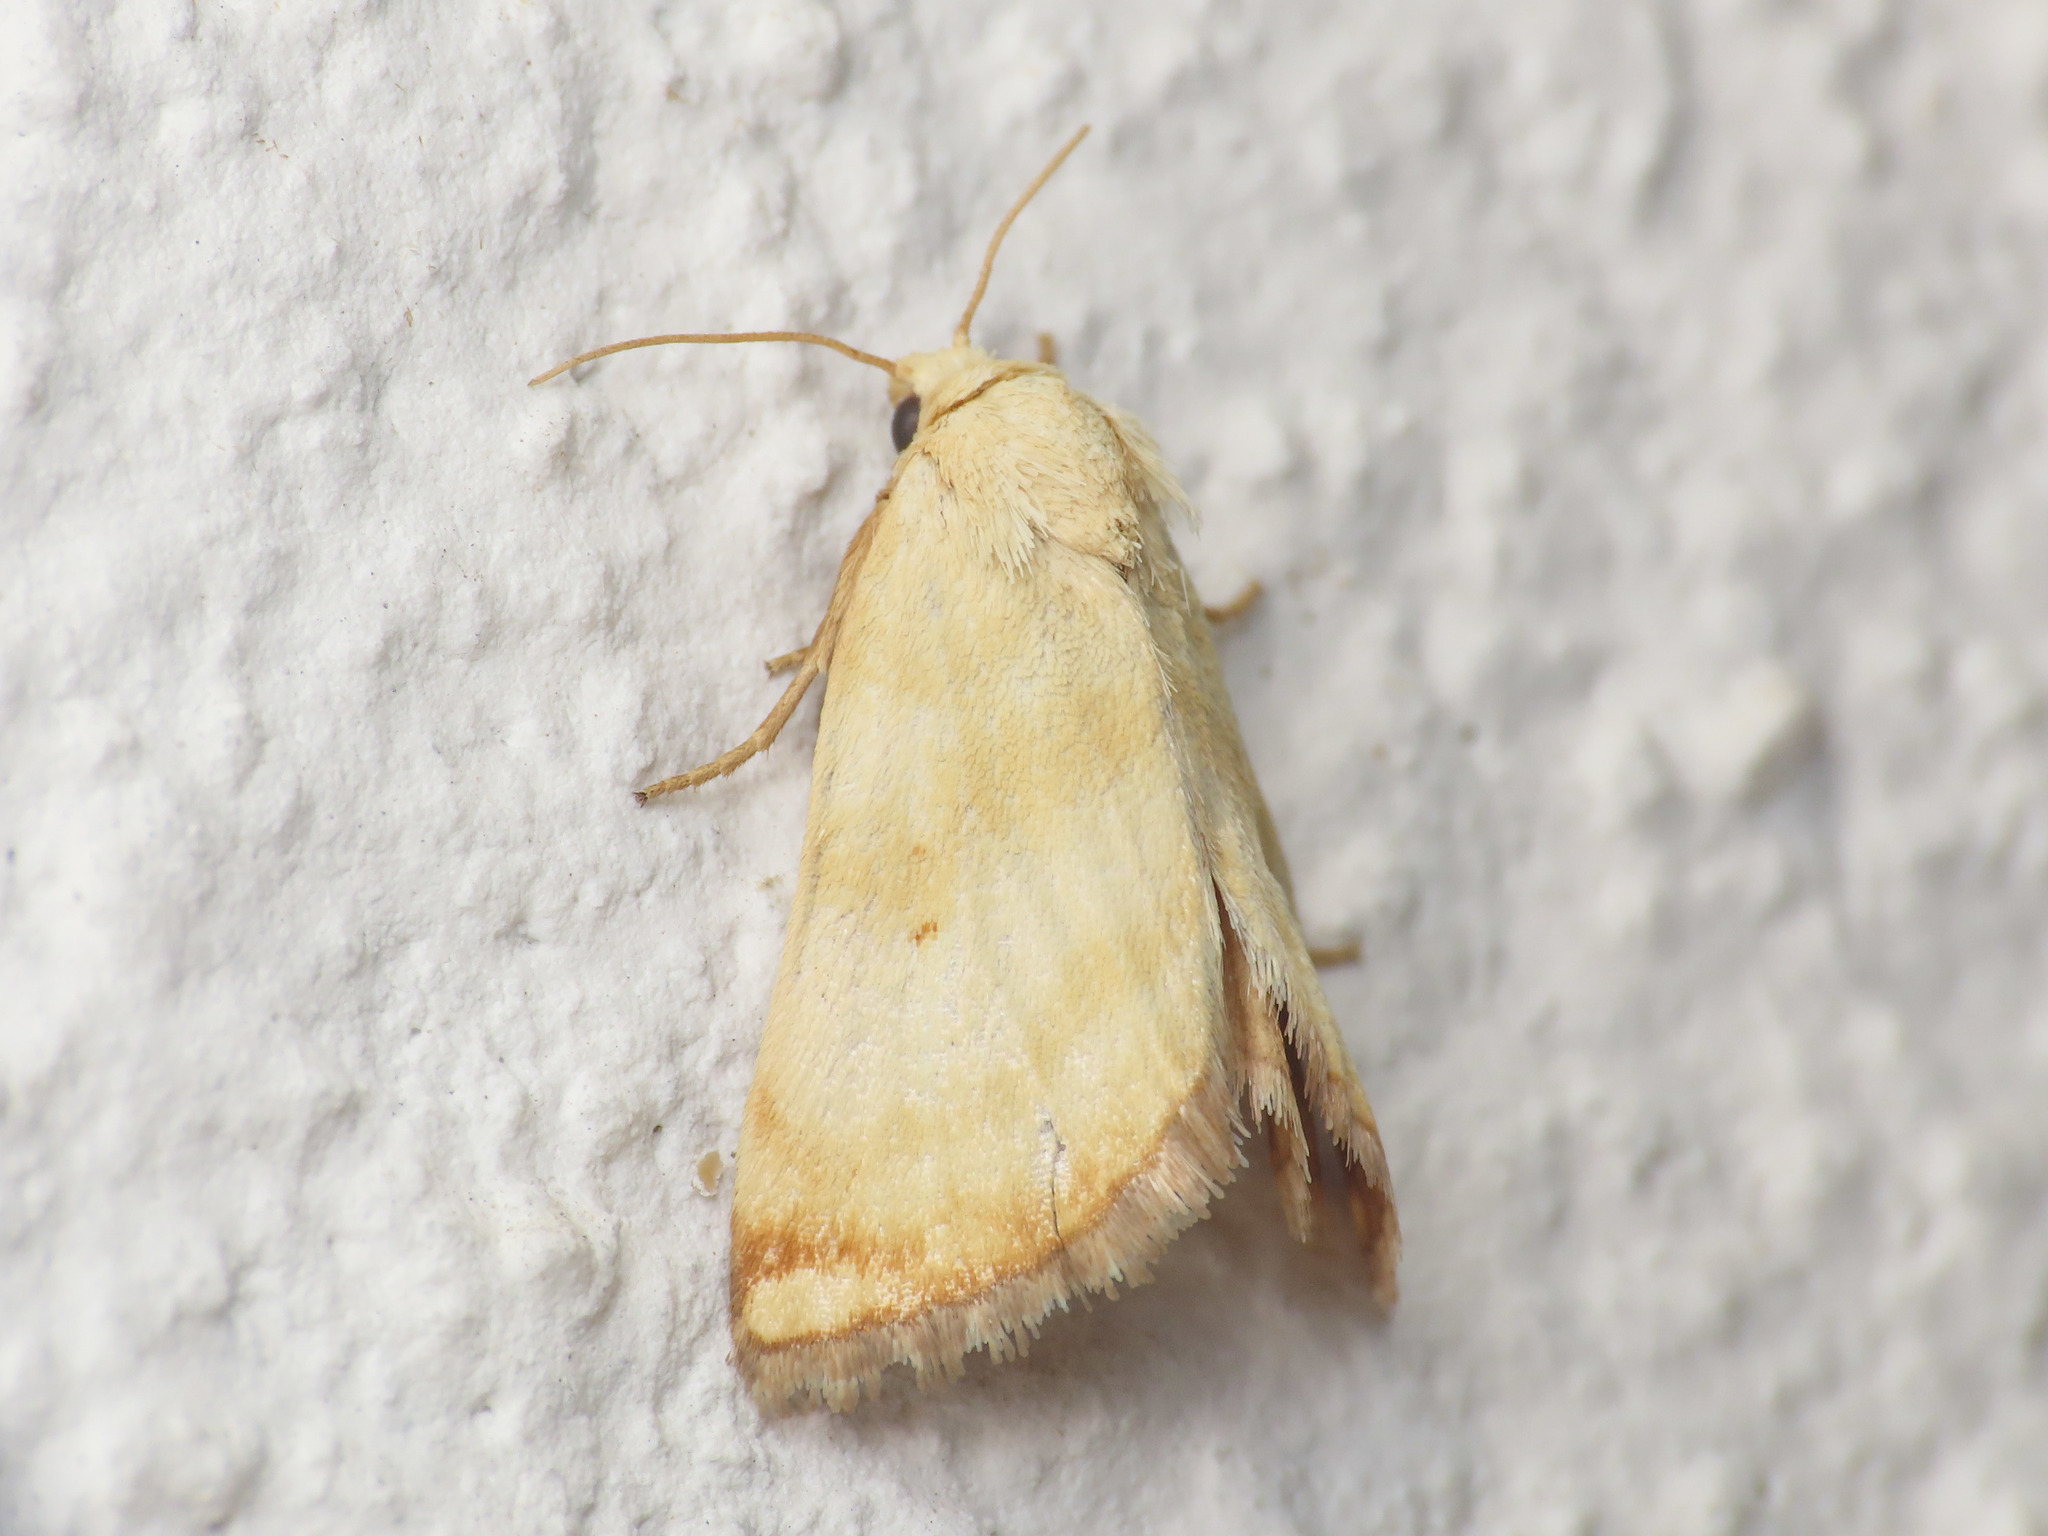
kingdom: Animalia
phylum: Arthropoda
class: Insecta
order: Lepidoptera
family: Noctuidae
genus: Aegle
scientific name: Aegle semicana
